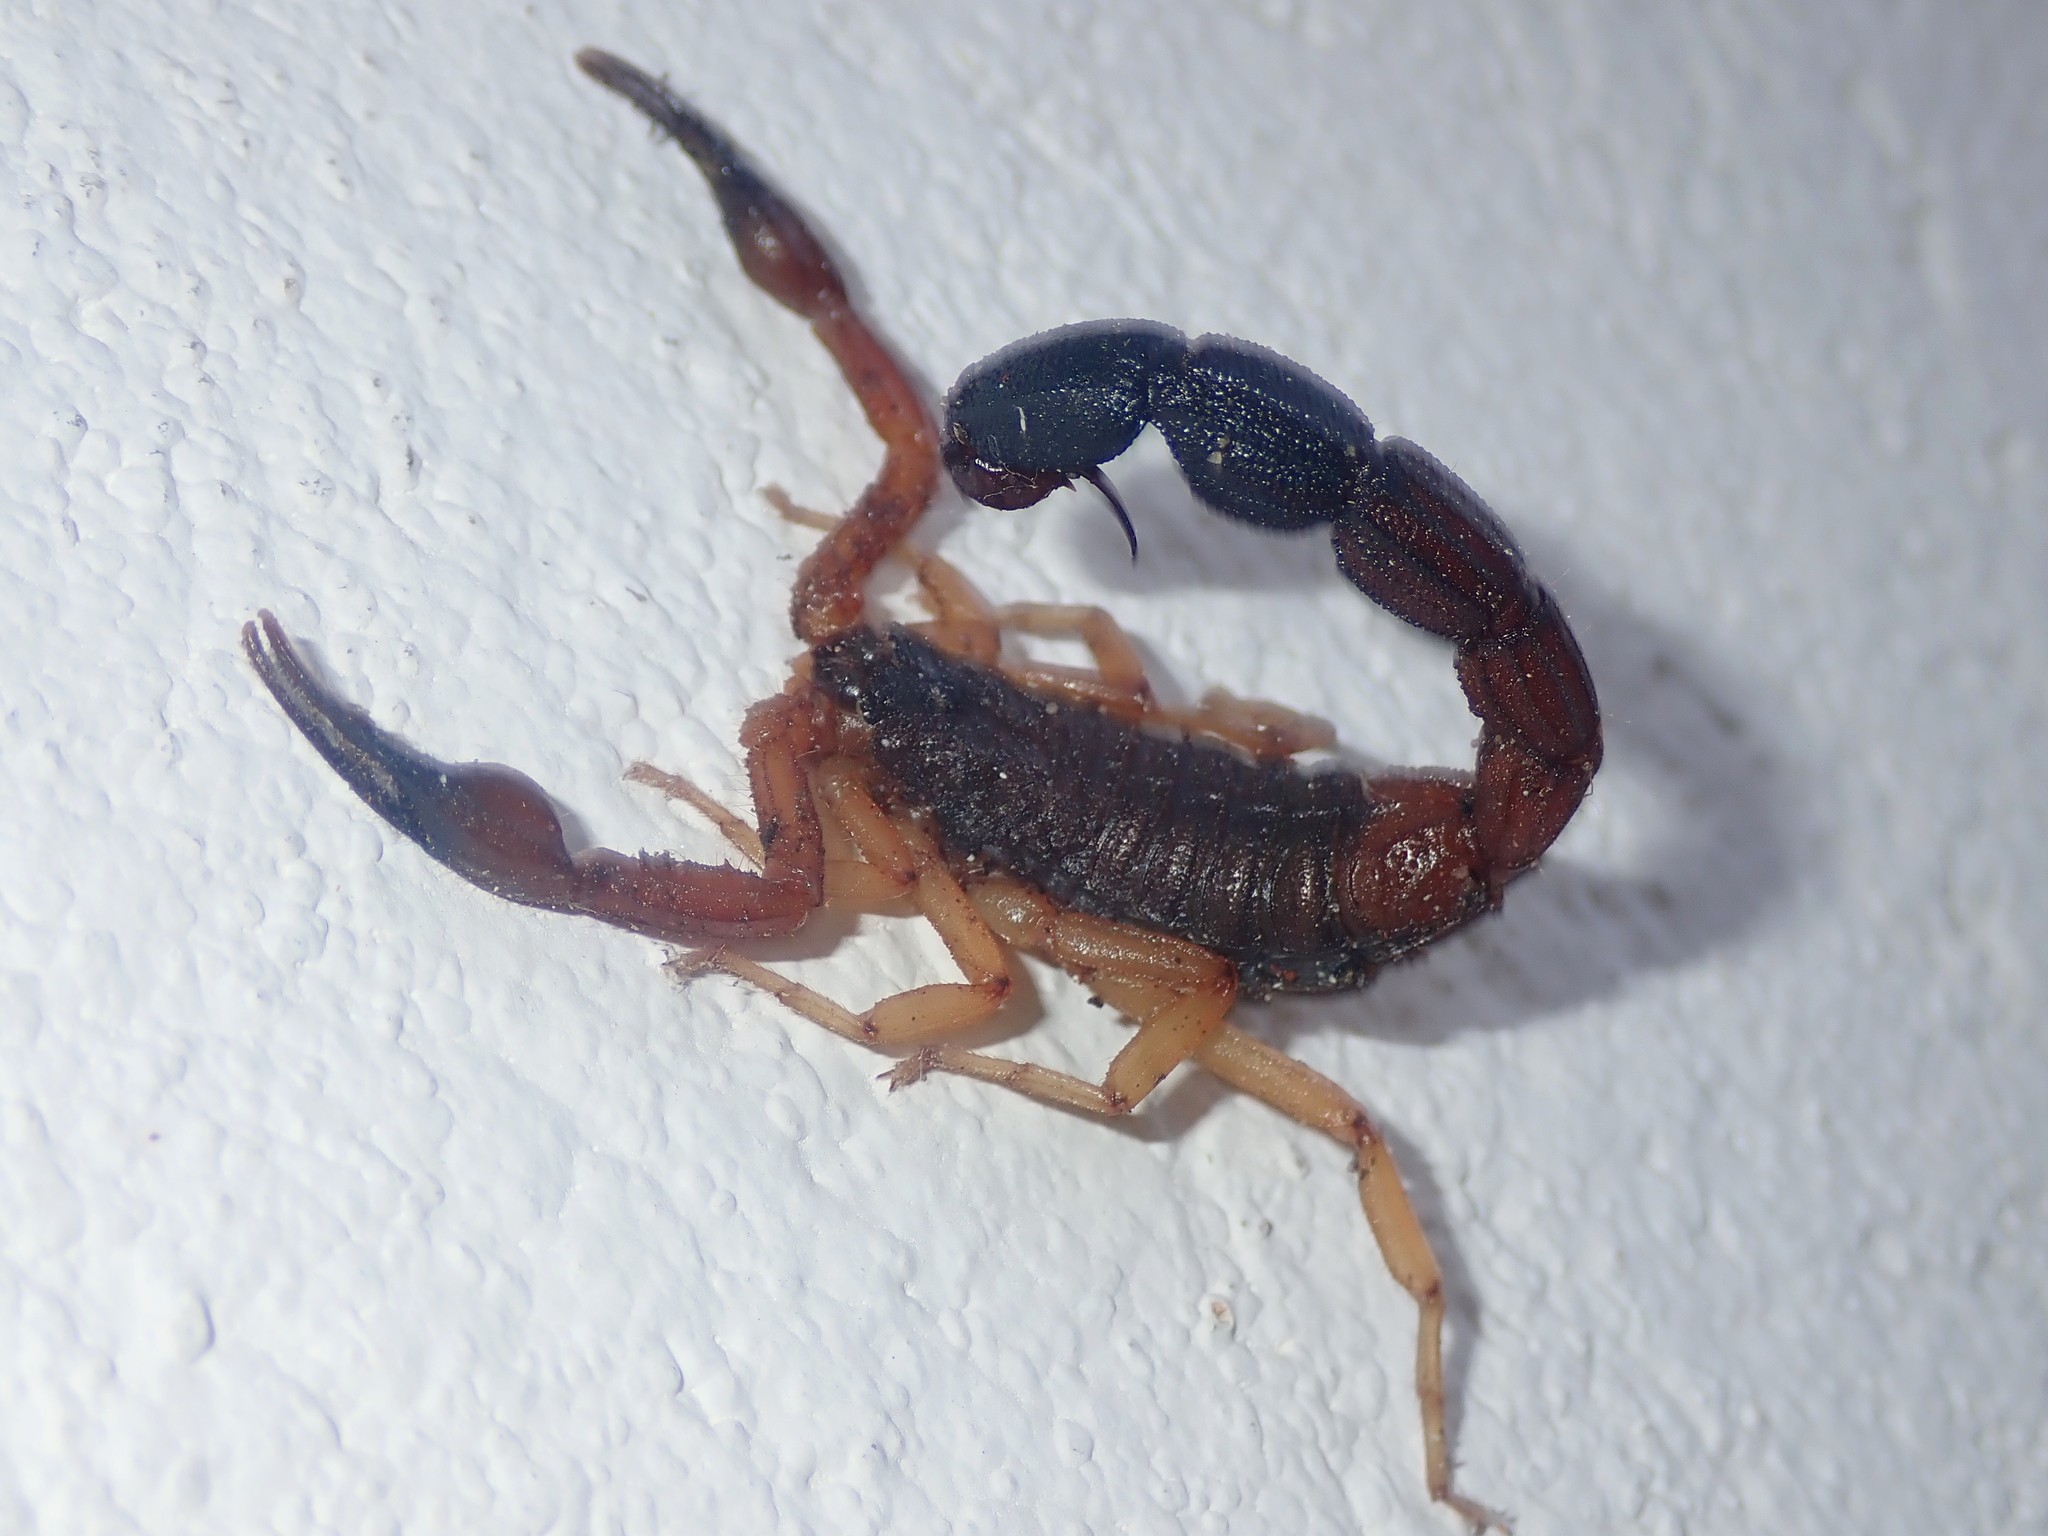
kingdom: Animalia
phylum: Arthropoda
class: Arachnida
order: Scorpiones
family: Buthidae
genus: Jaguajir
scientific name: Jaguajir agamemnon
